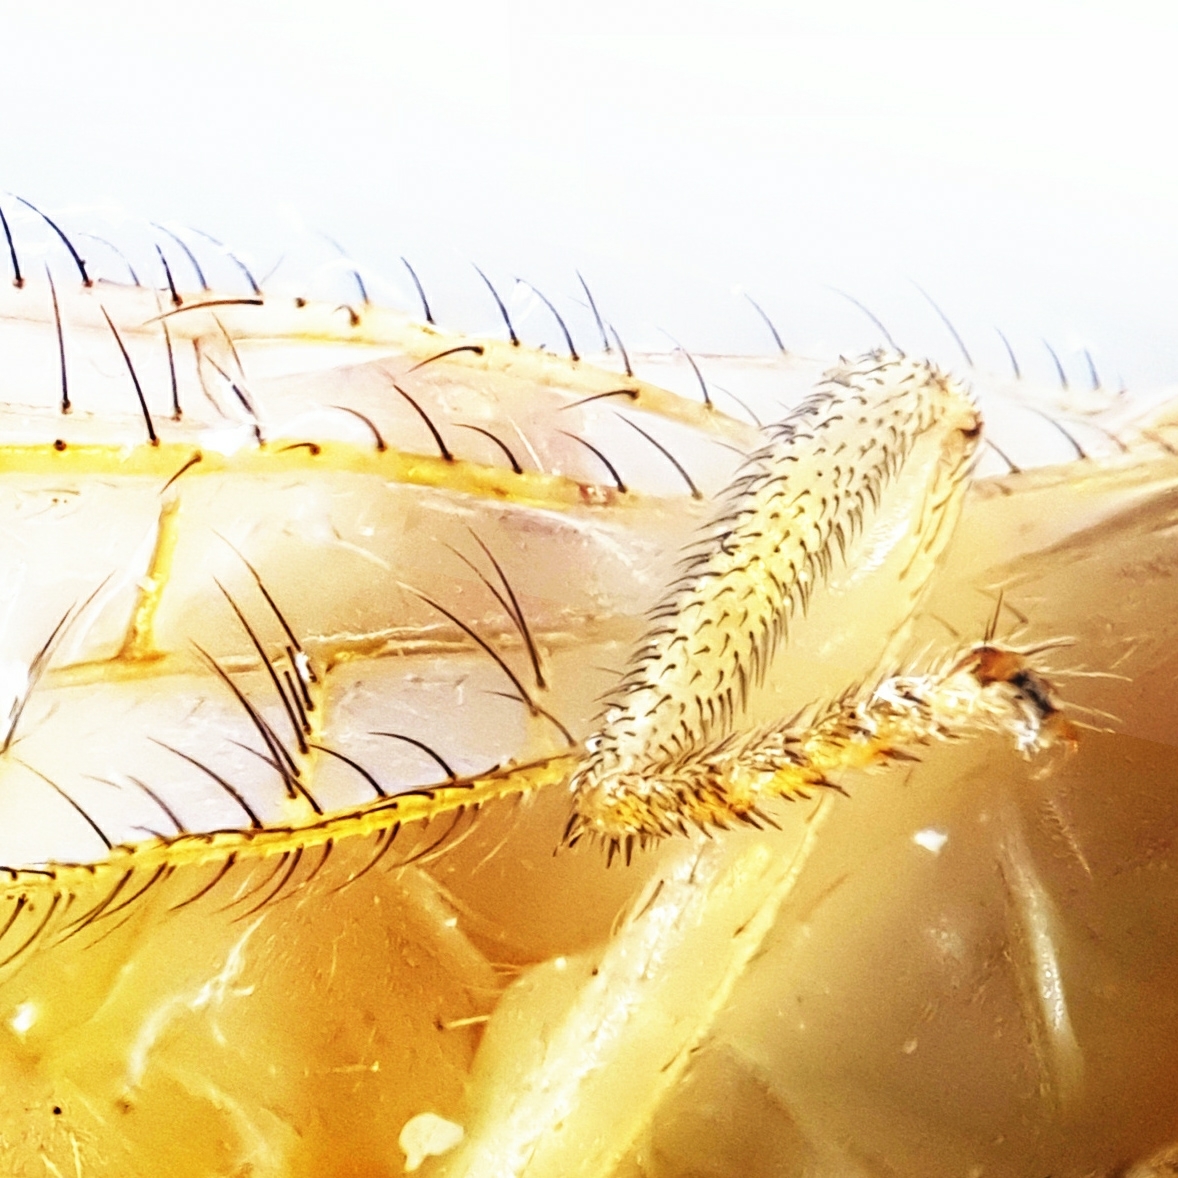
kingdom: Animalia
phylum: Arthropoda
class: Insecta
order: Neuroptera
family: Chrysopidae
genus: Chrysoperla
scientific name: Chrysoperla
